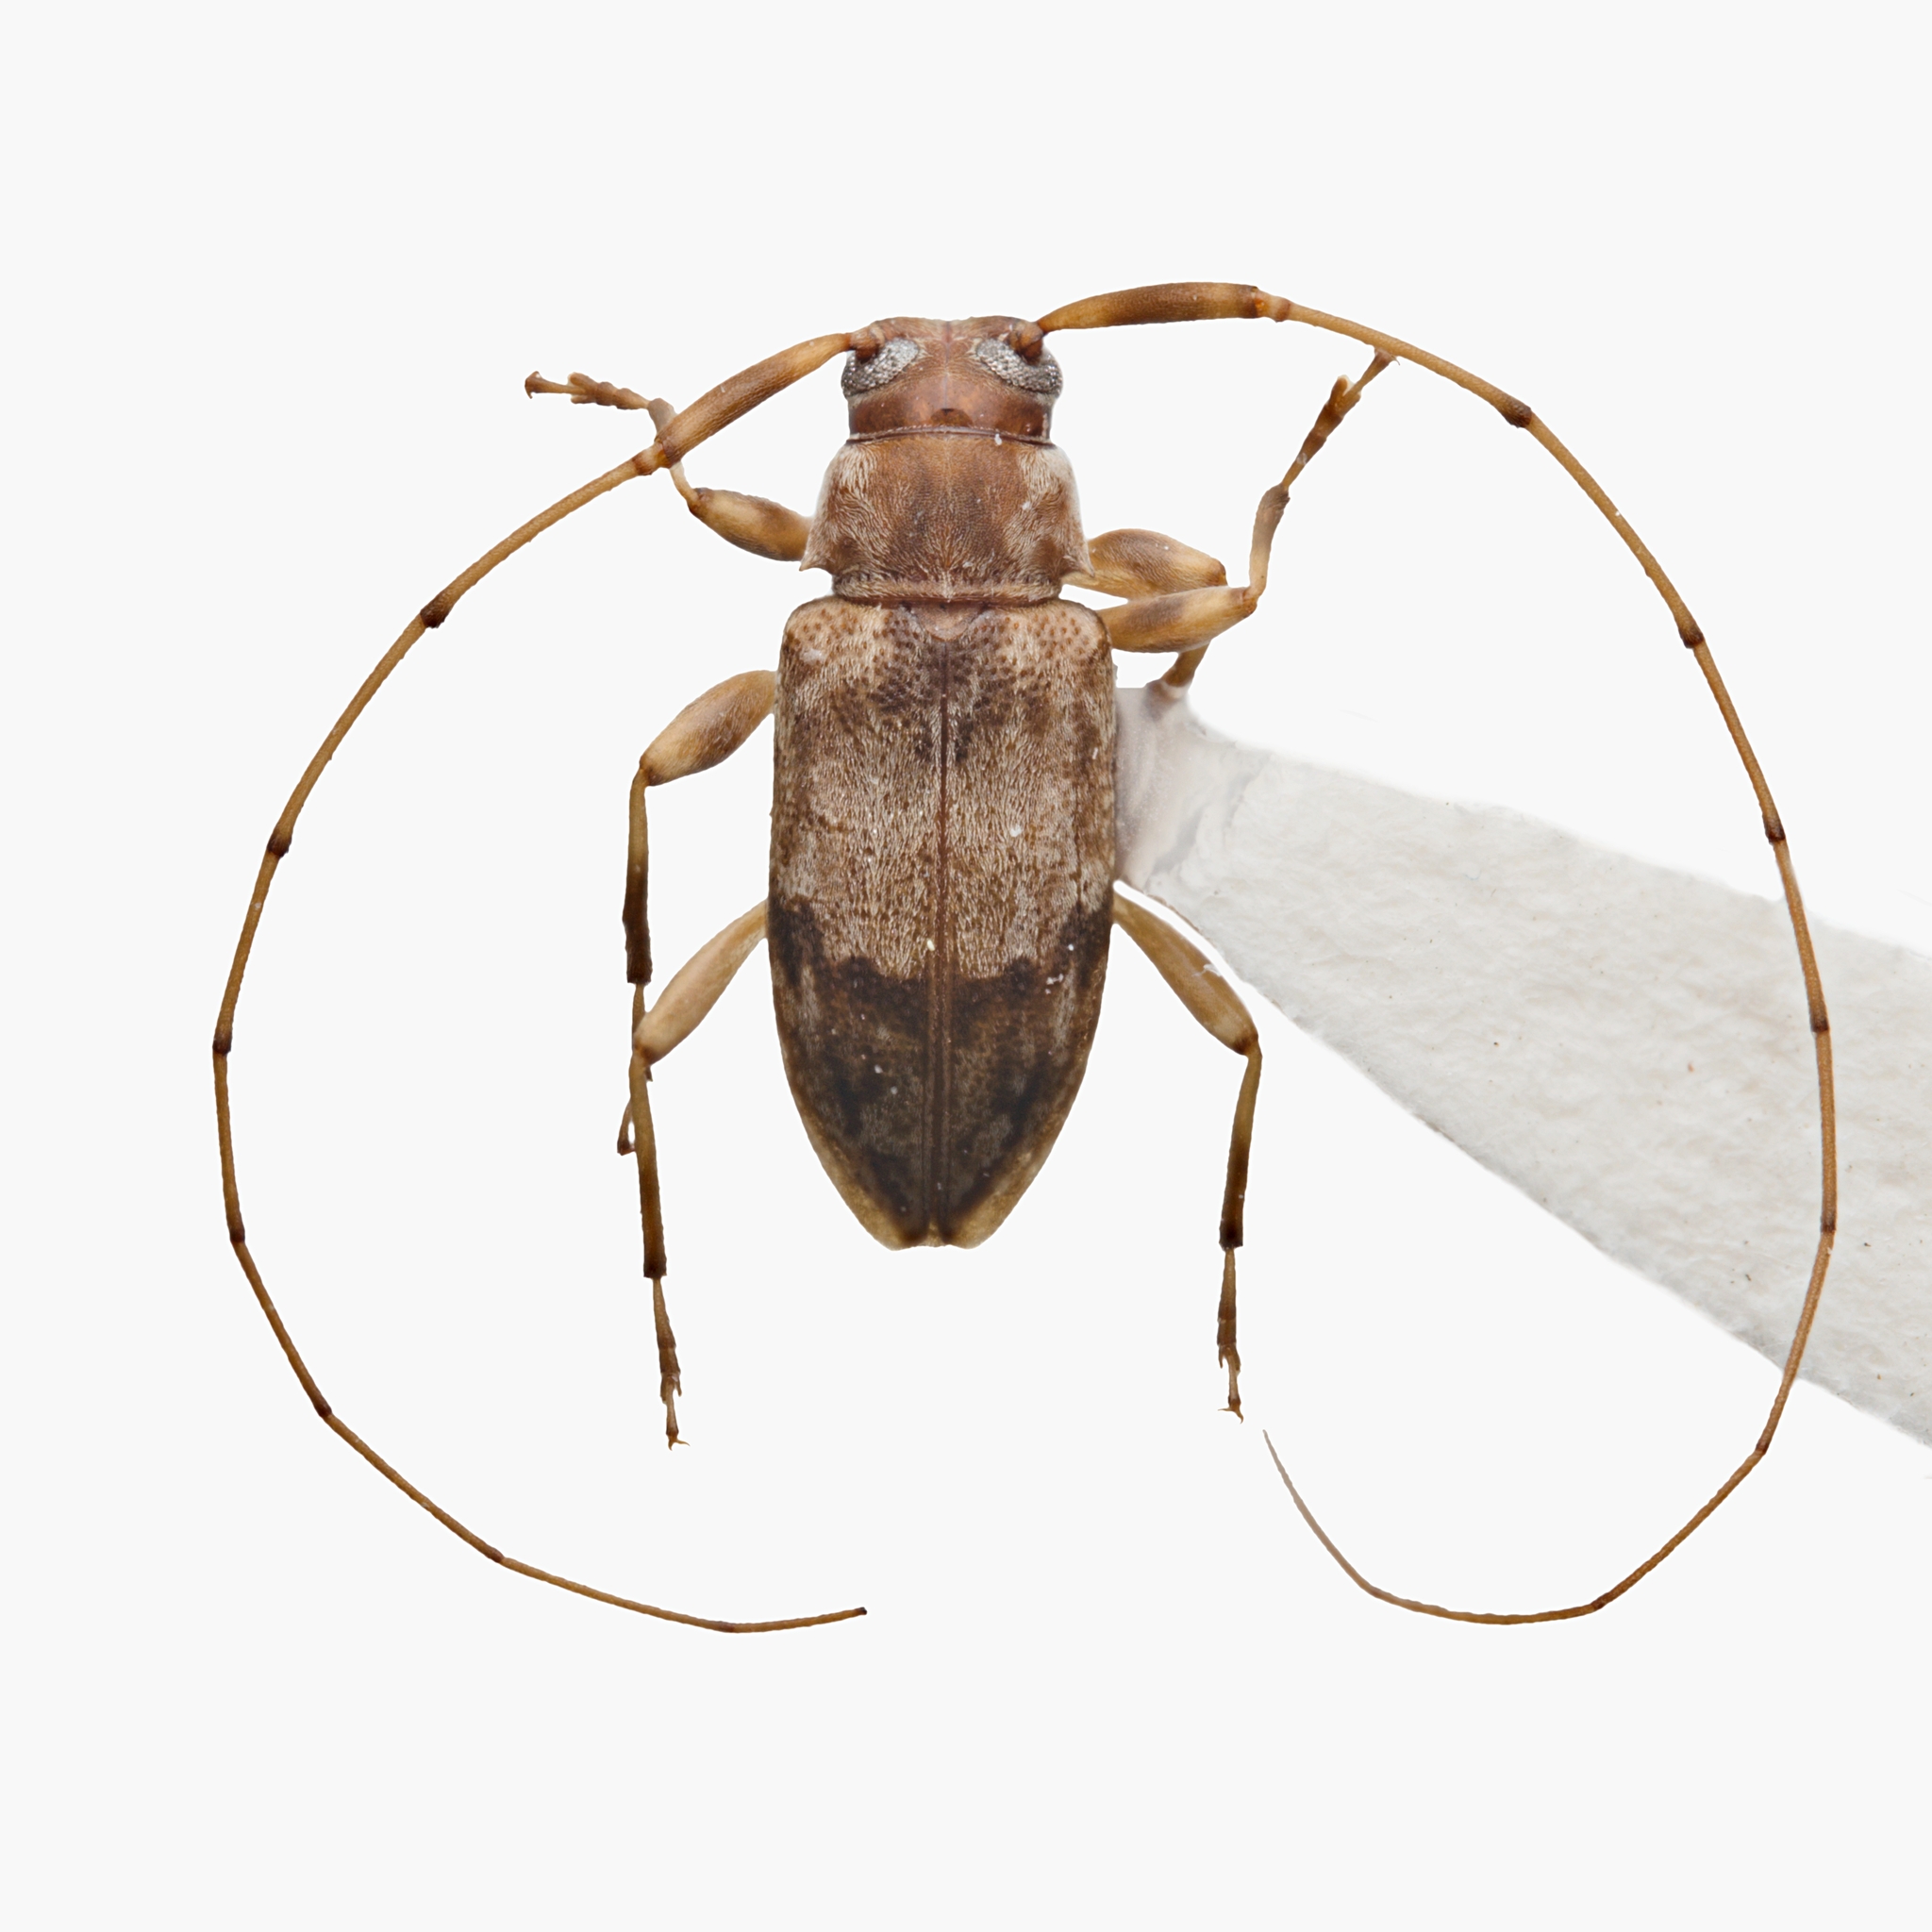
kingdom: Animalia
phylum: Arthropoda
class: Insecta
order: Coleoptera
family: Cerambycidae
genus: Urgleptes
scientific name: Urgleptes sandersoni
